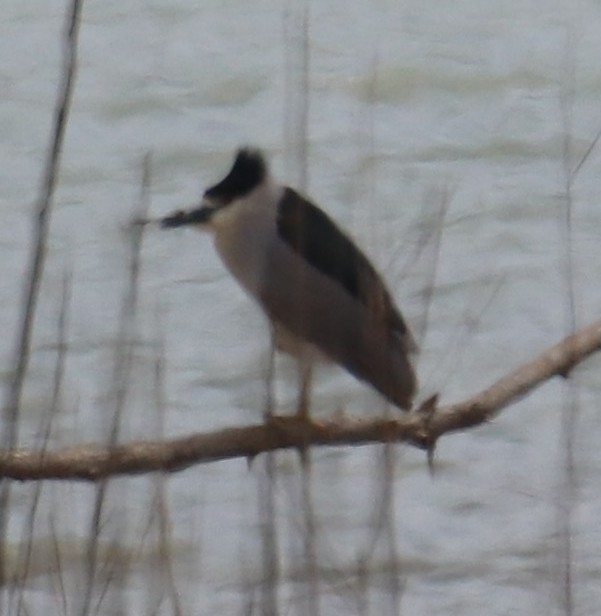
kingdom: Animalia
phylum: Chordata
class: Aves
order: Pelecaniformes
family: Ardeidae
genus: Nycticorax
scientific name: Nycticorax nycticorax
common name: Black-crowned night heron
